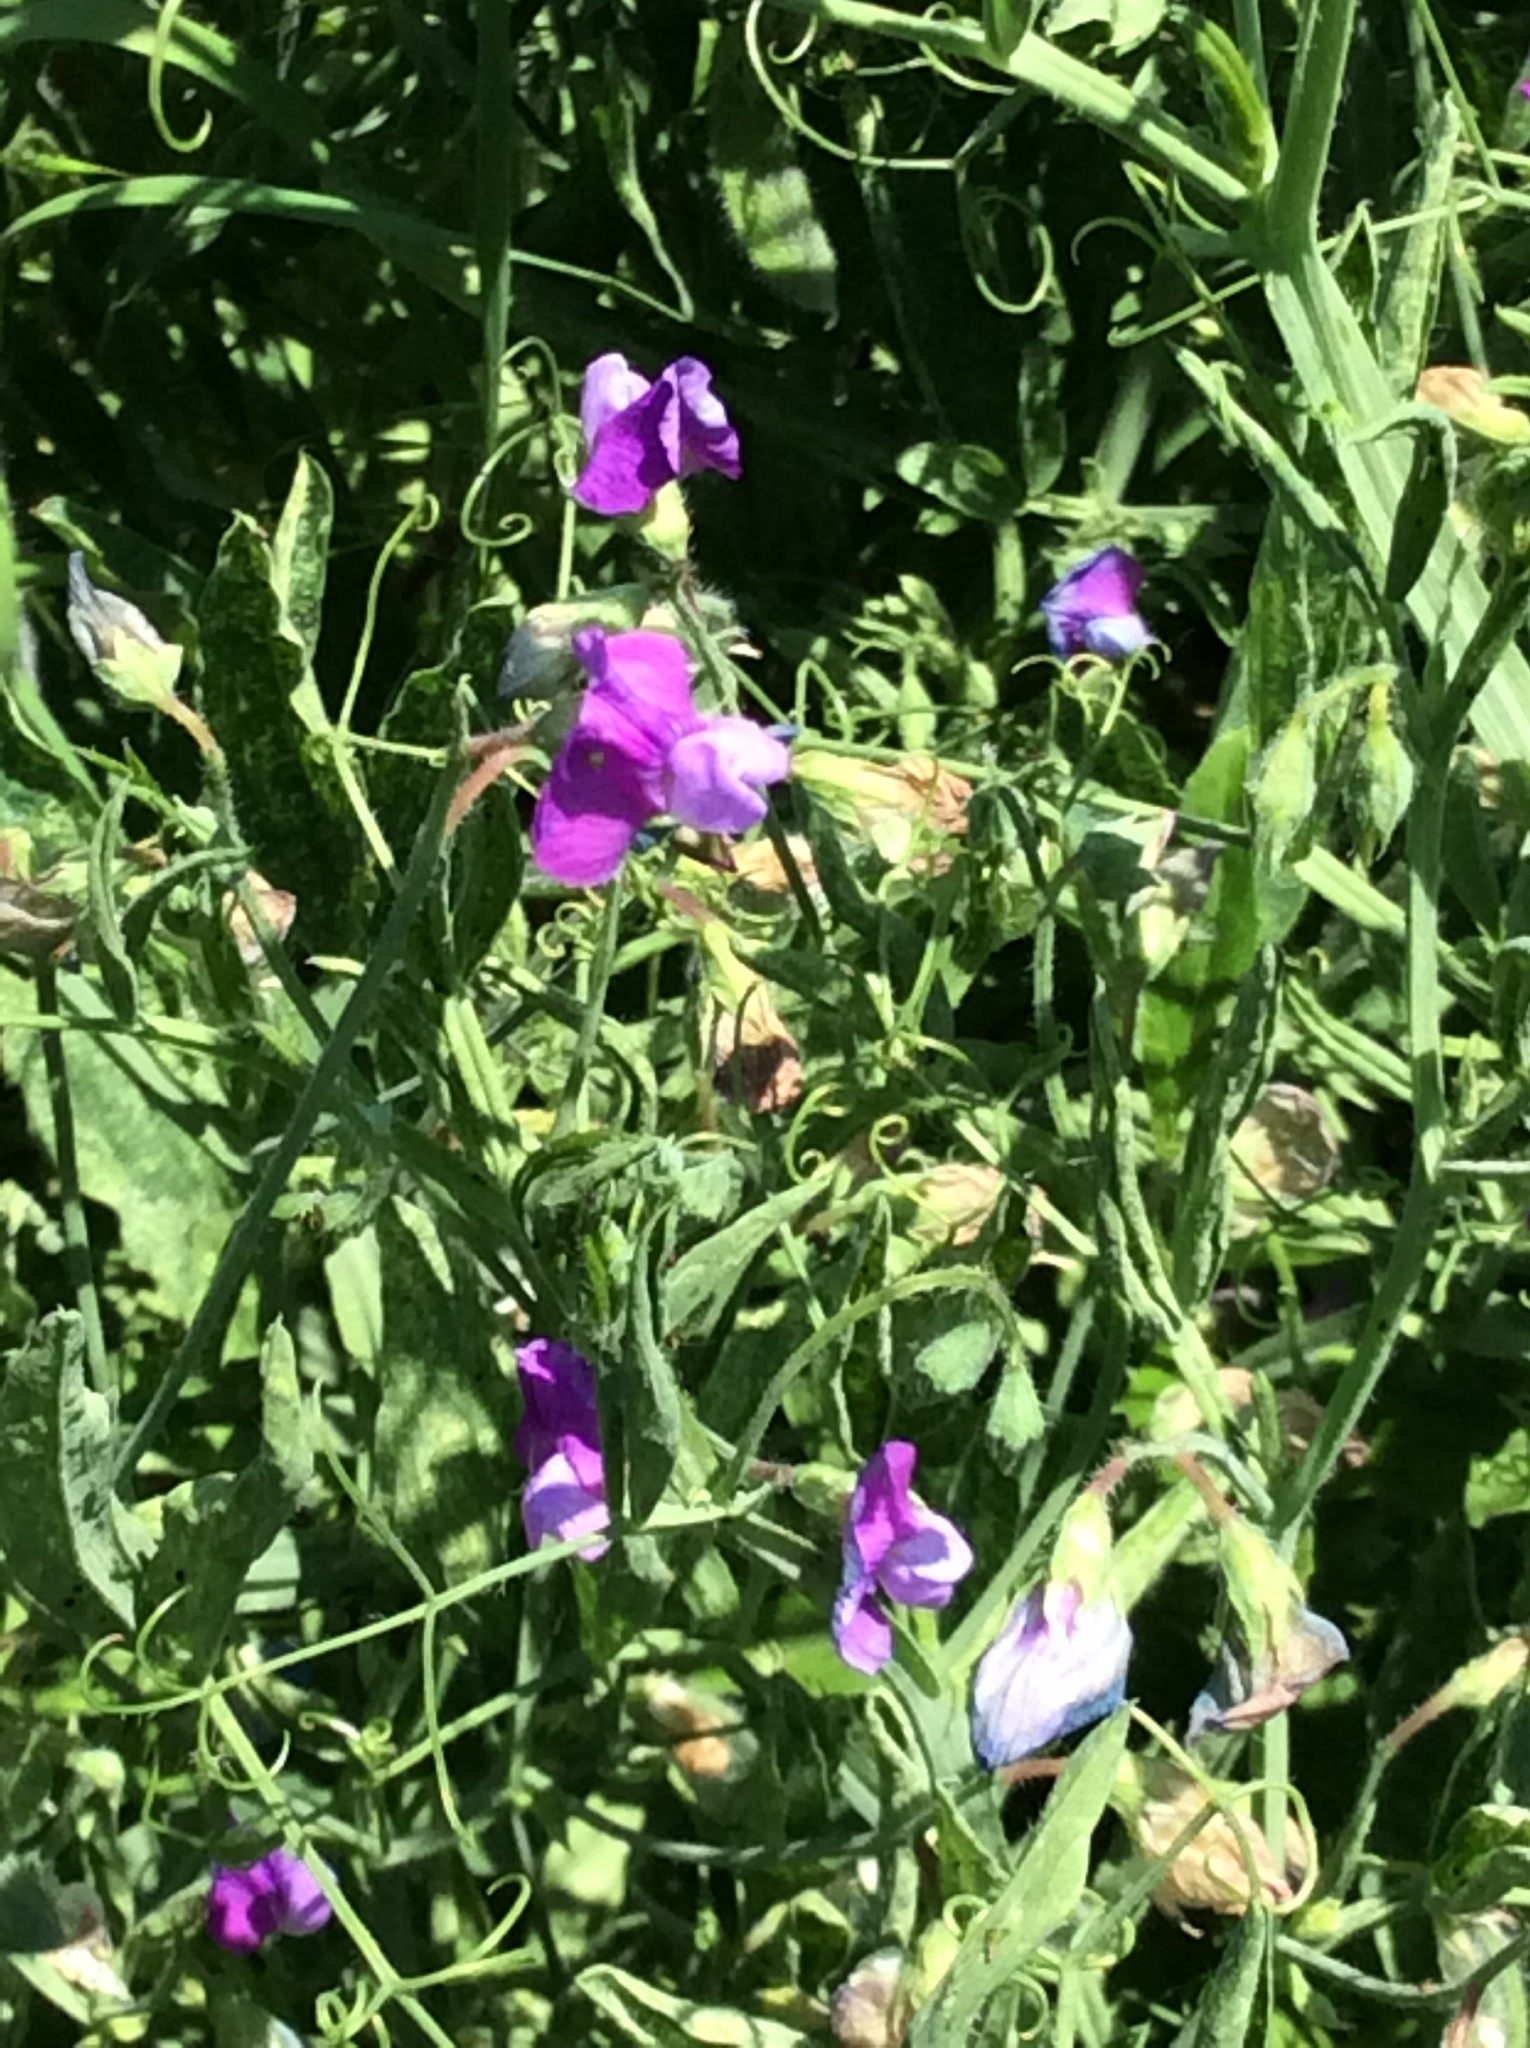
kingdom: Plantae
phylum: Tracheophyta
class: Magnoliopsida
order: Fabales
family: Fabaceae
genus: Lathyrus
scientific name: Lathyrus hirsutus
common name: Hairy vetchling
